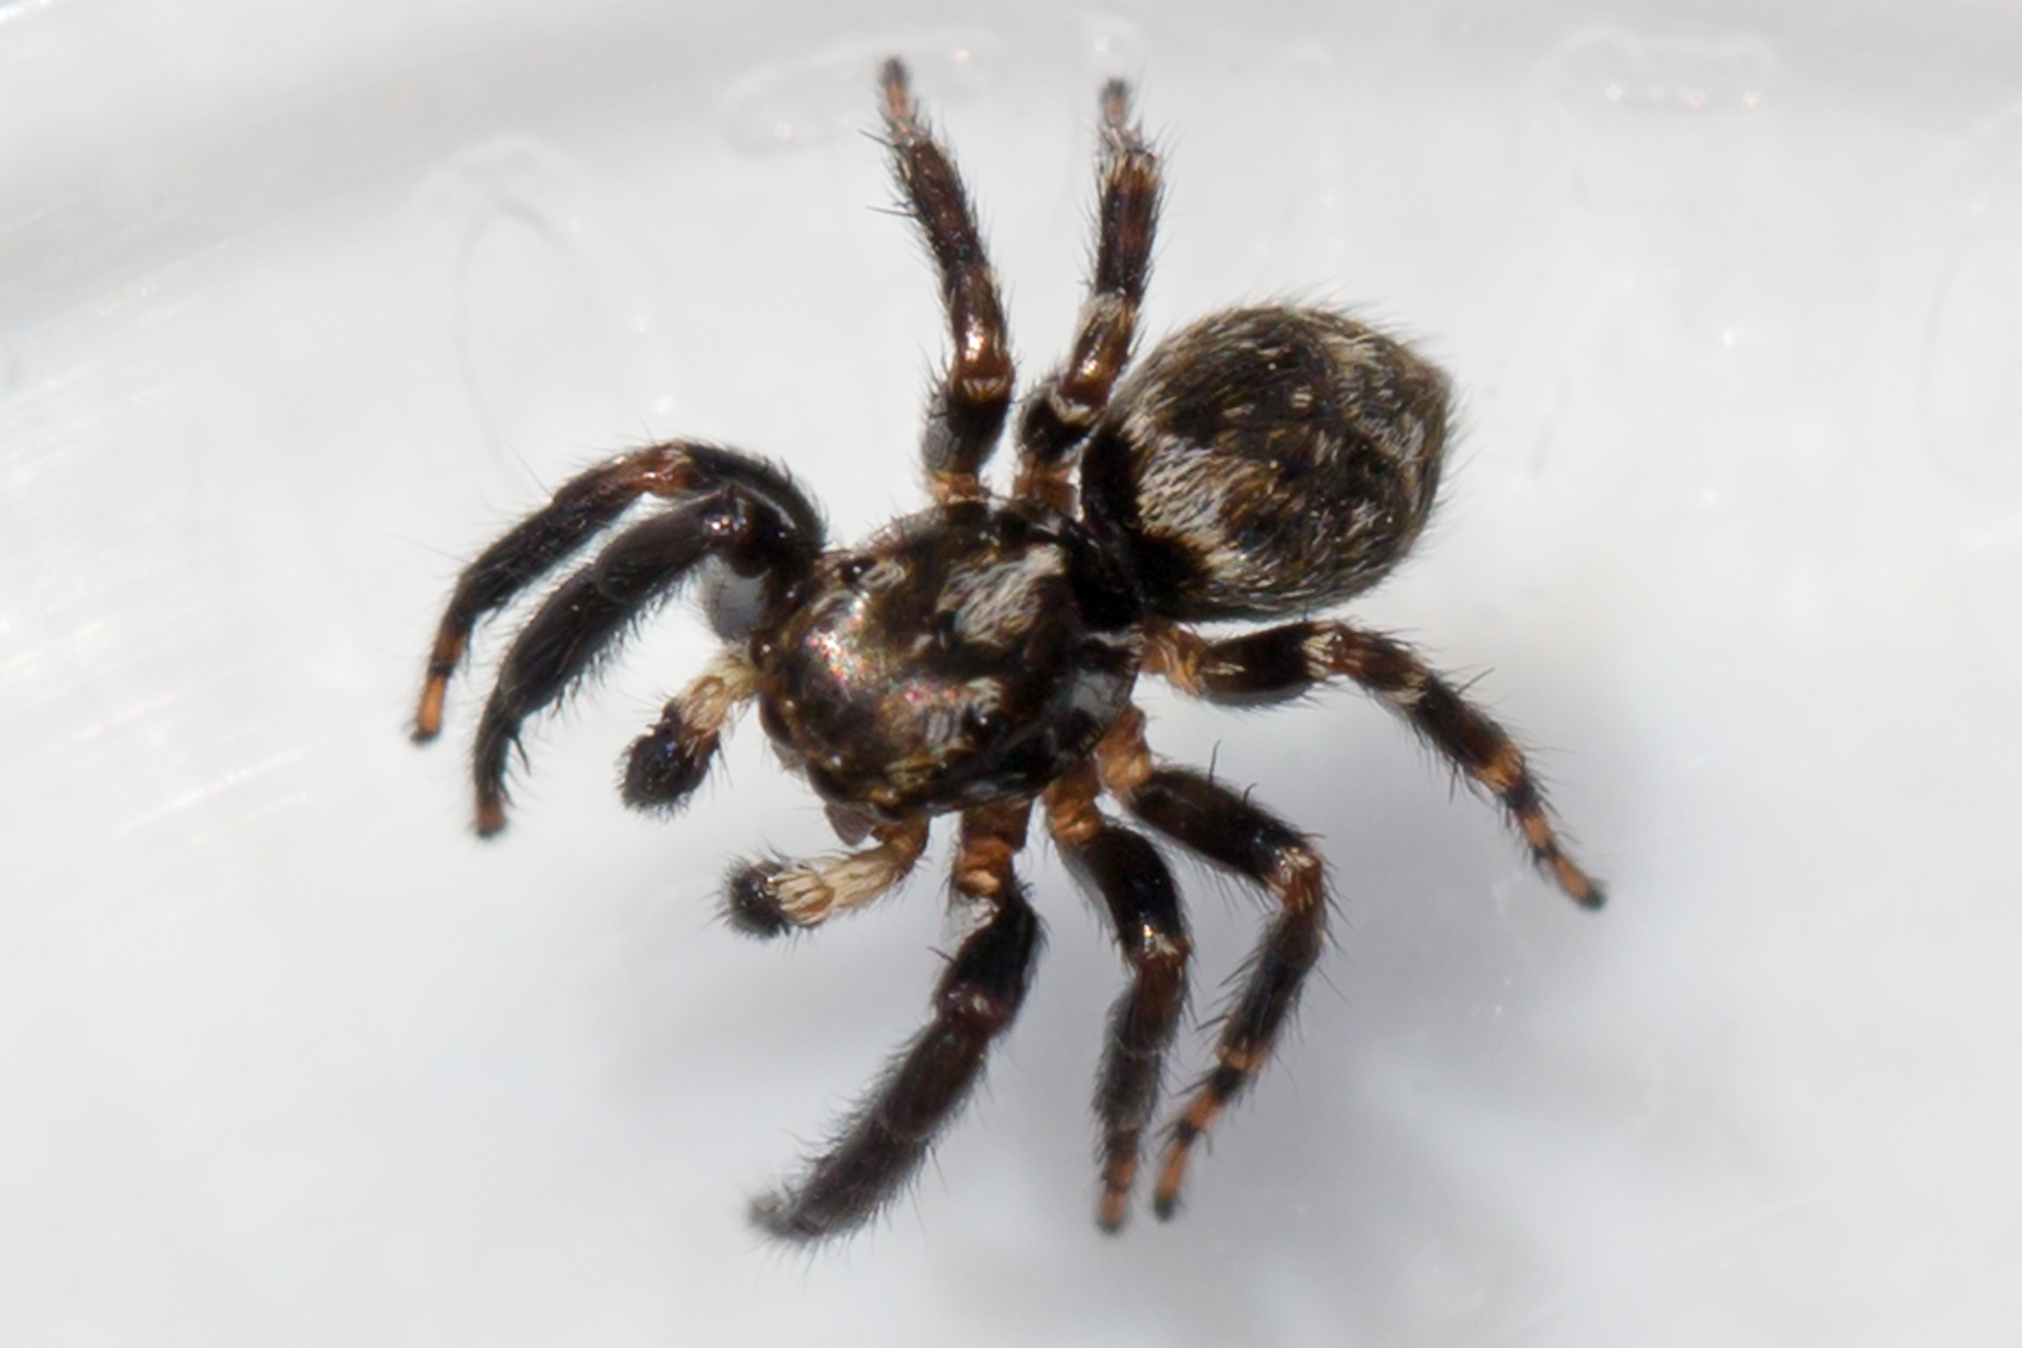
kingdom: Animalia
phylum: Arthropoda
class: Arachnida
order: Araneae
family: Salticidae
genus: Pseudeuophrys
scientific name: Pseudeuophrys erratica
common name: Jumping spider
